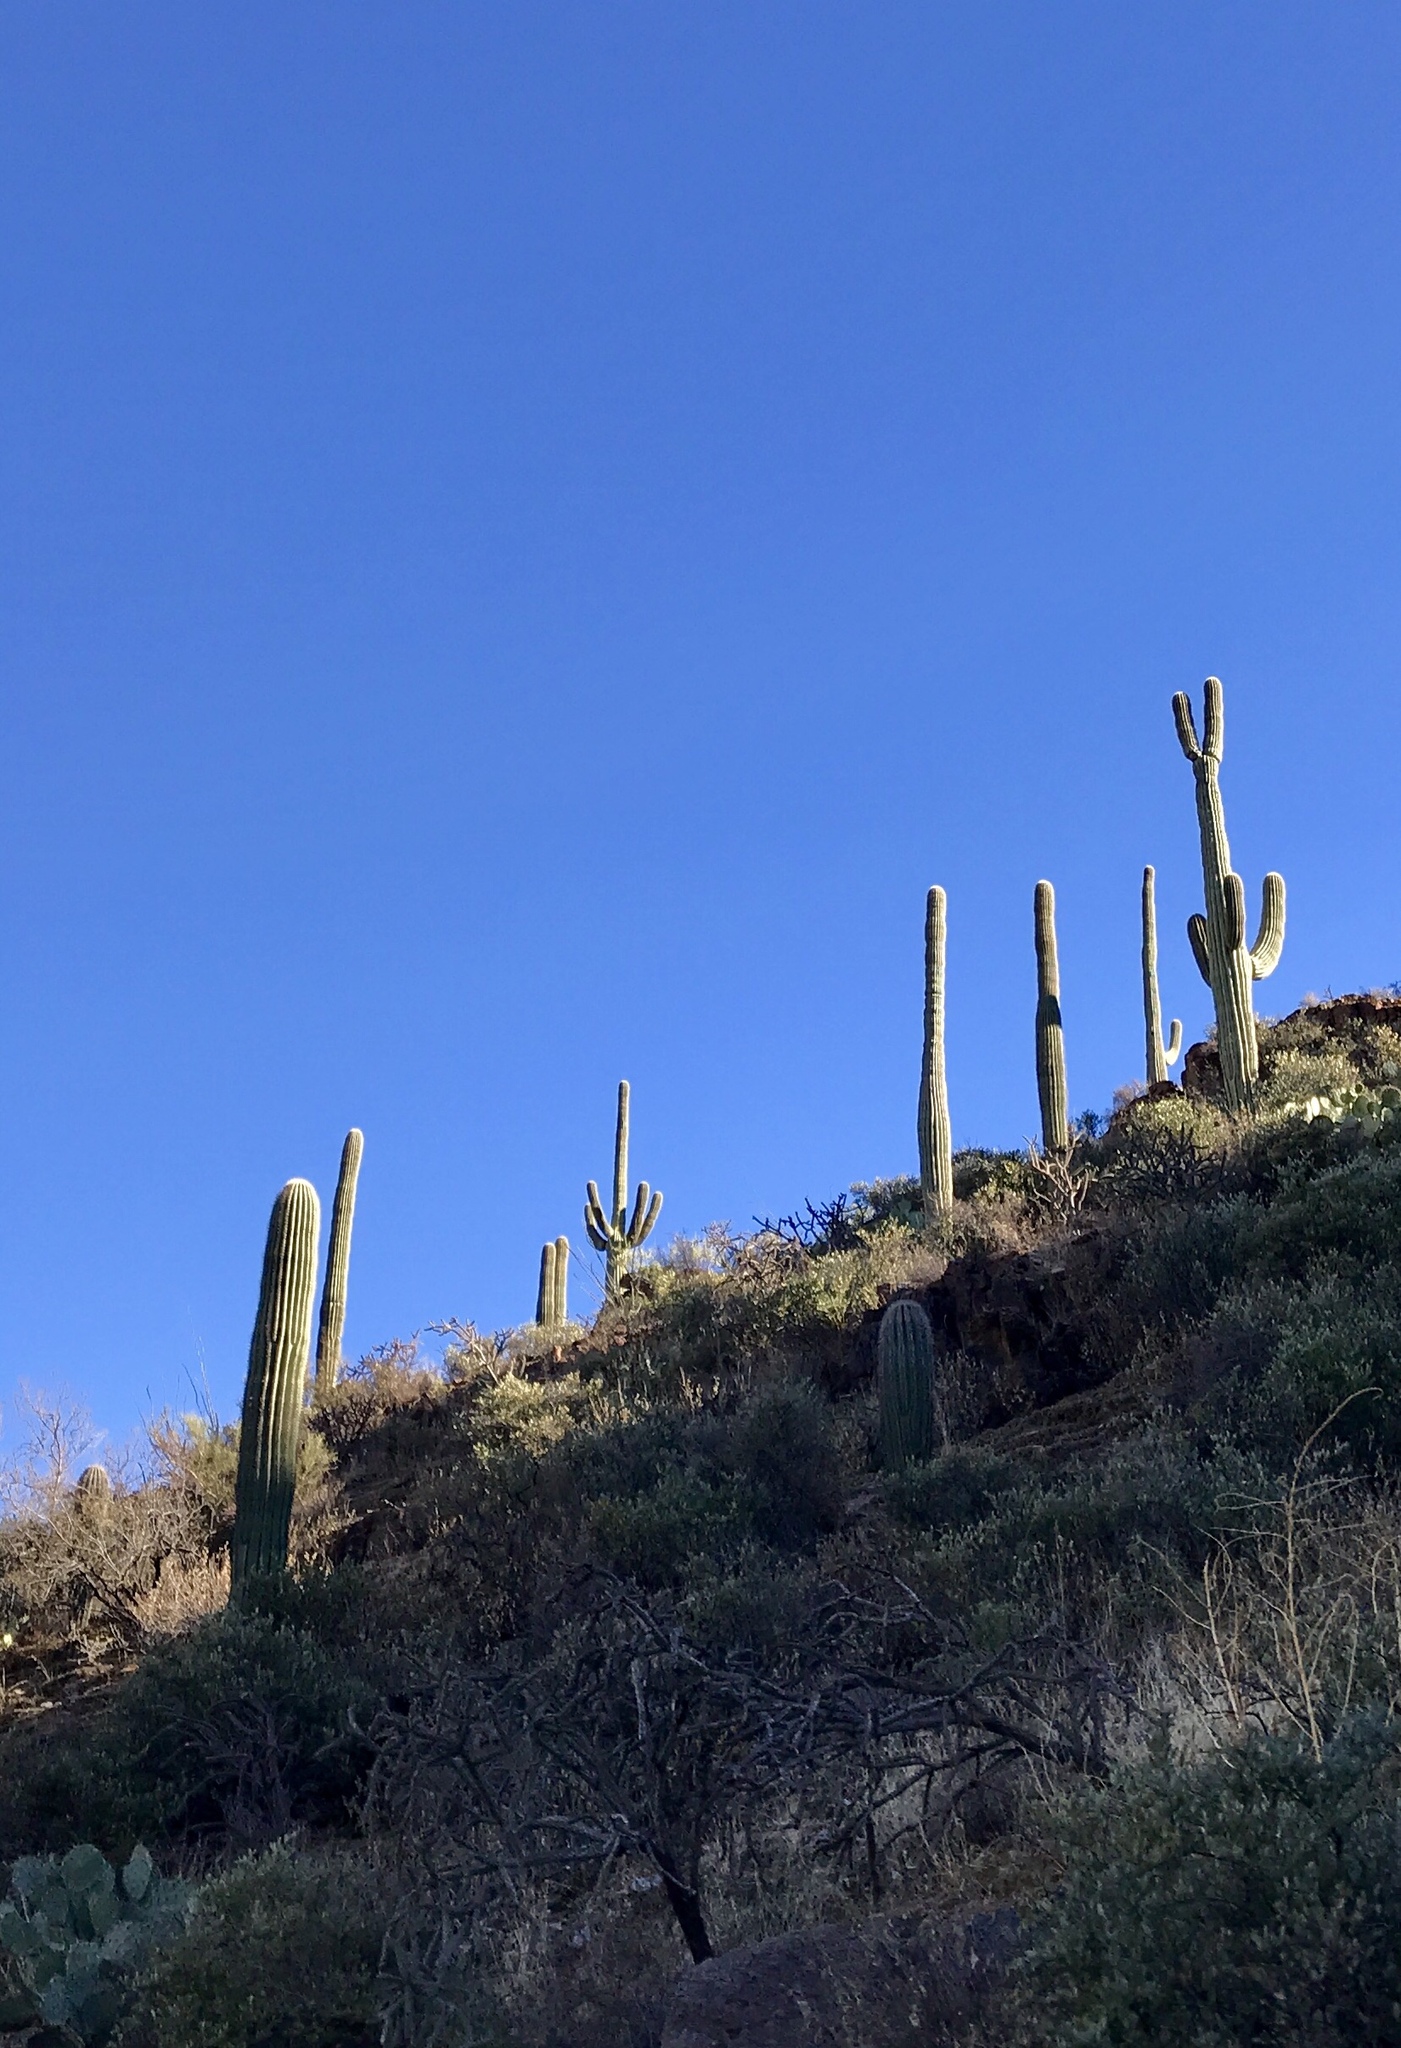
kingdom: Plantae
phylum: Tracheophyta
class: Magnoliopsida
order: Caryophyllales
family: Cactaceae
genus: Carnegiea
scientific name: Carnegiea gigantea
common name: Saguaro
